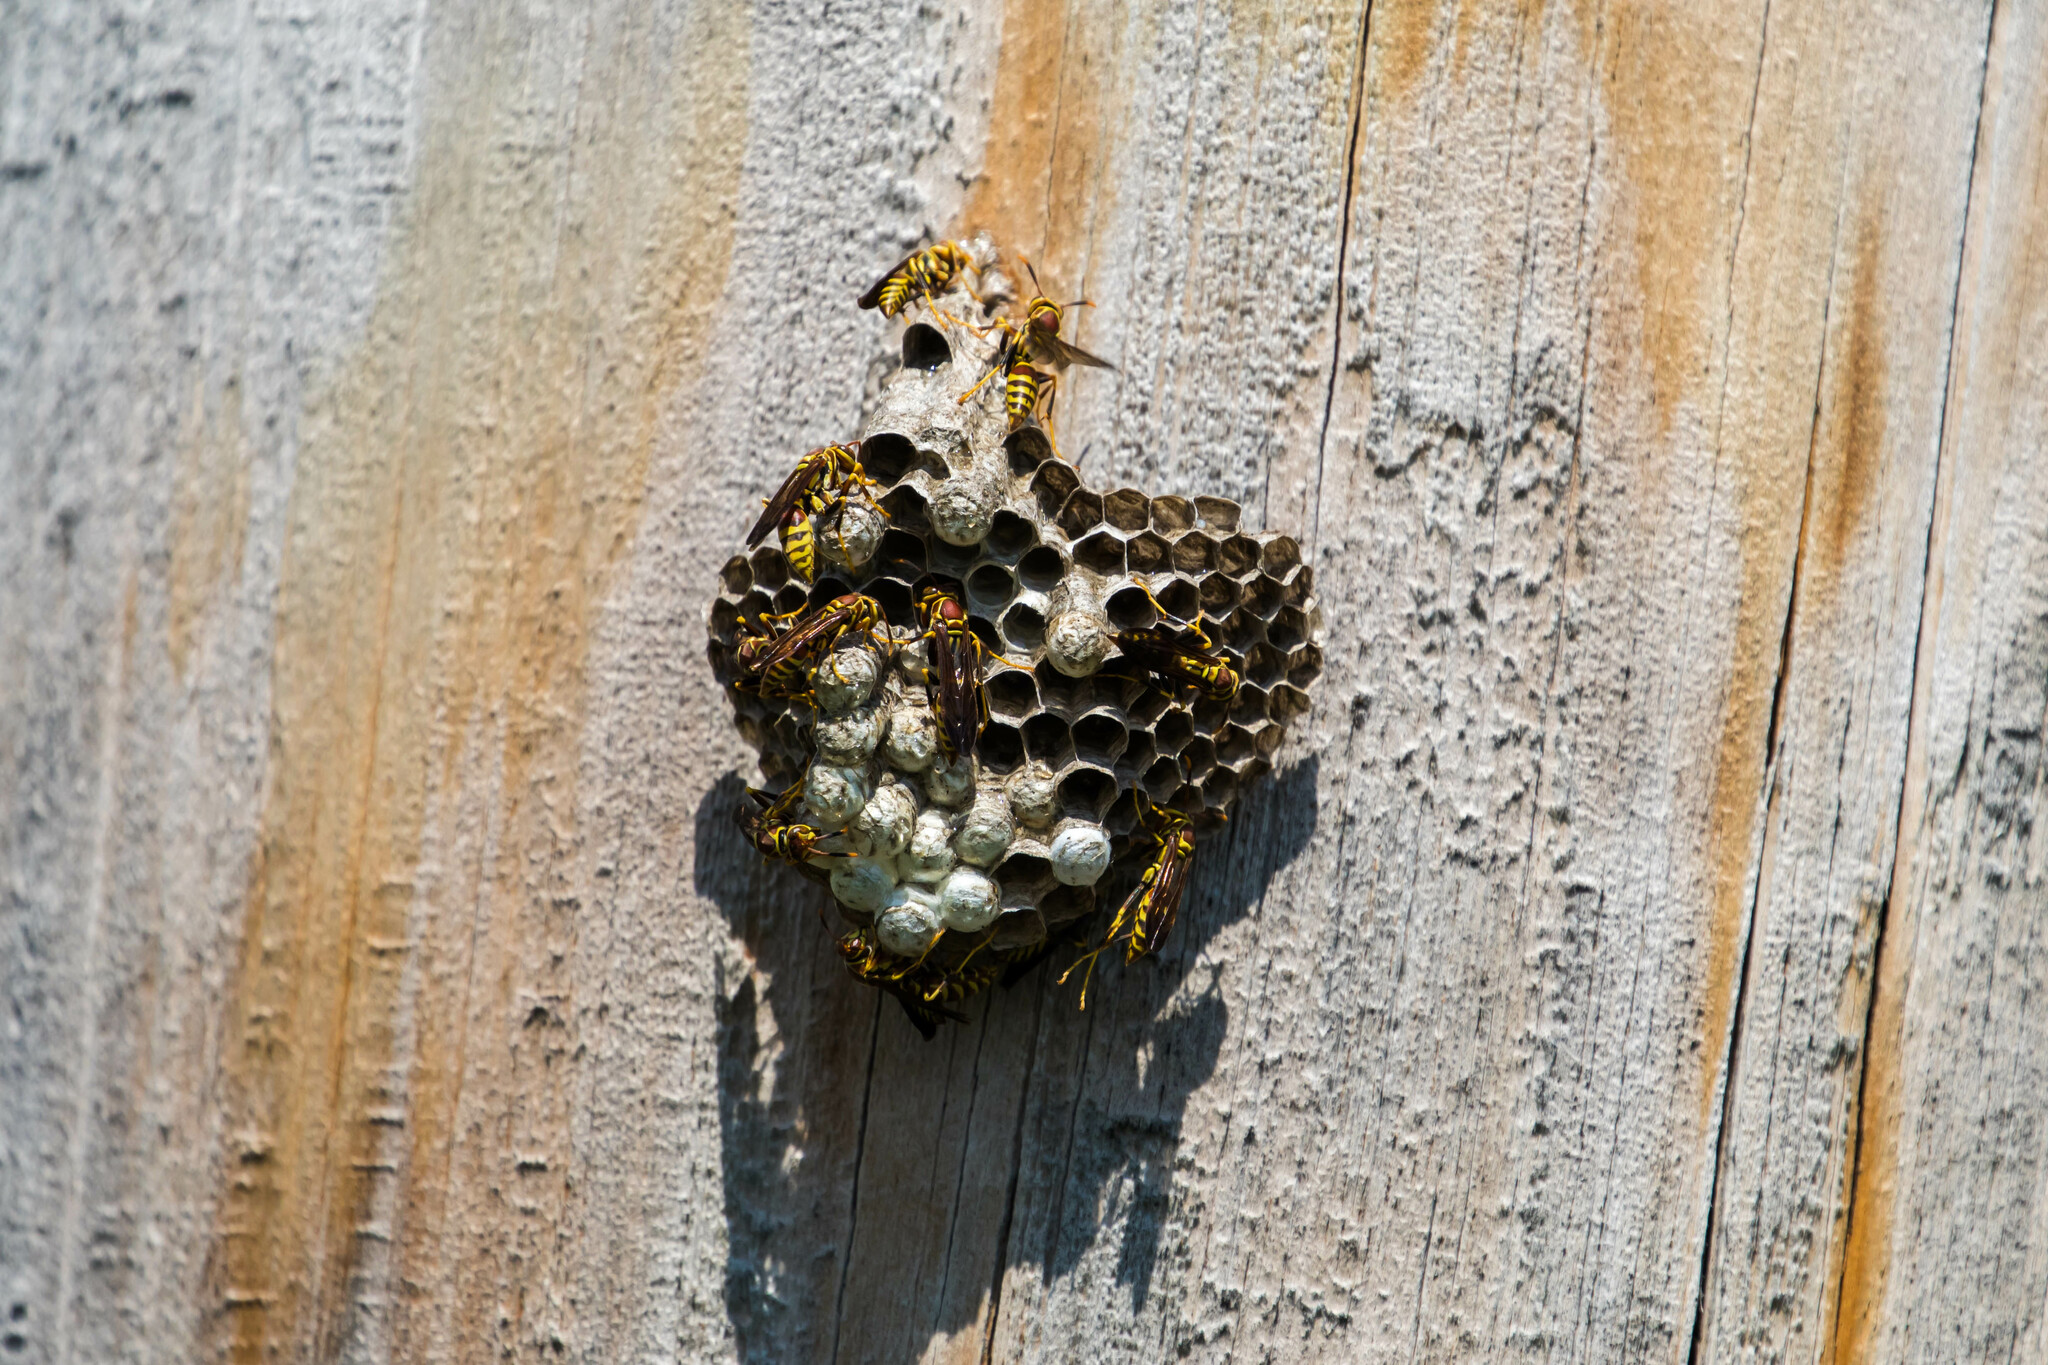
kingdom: Animalia
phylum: Arthropoda
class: Insecta
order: Hymenoptera
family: Eumenidae
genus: Polistes
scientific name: Polistes exclamans
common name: Paper wasp
